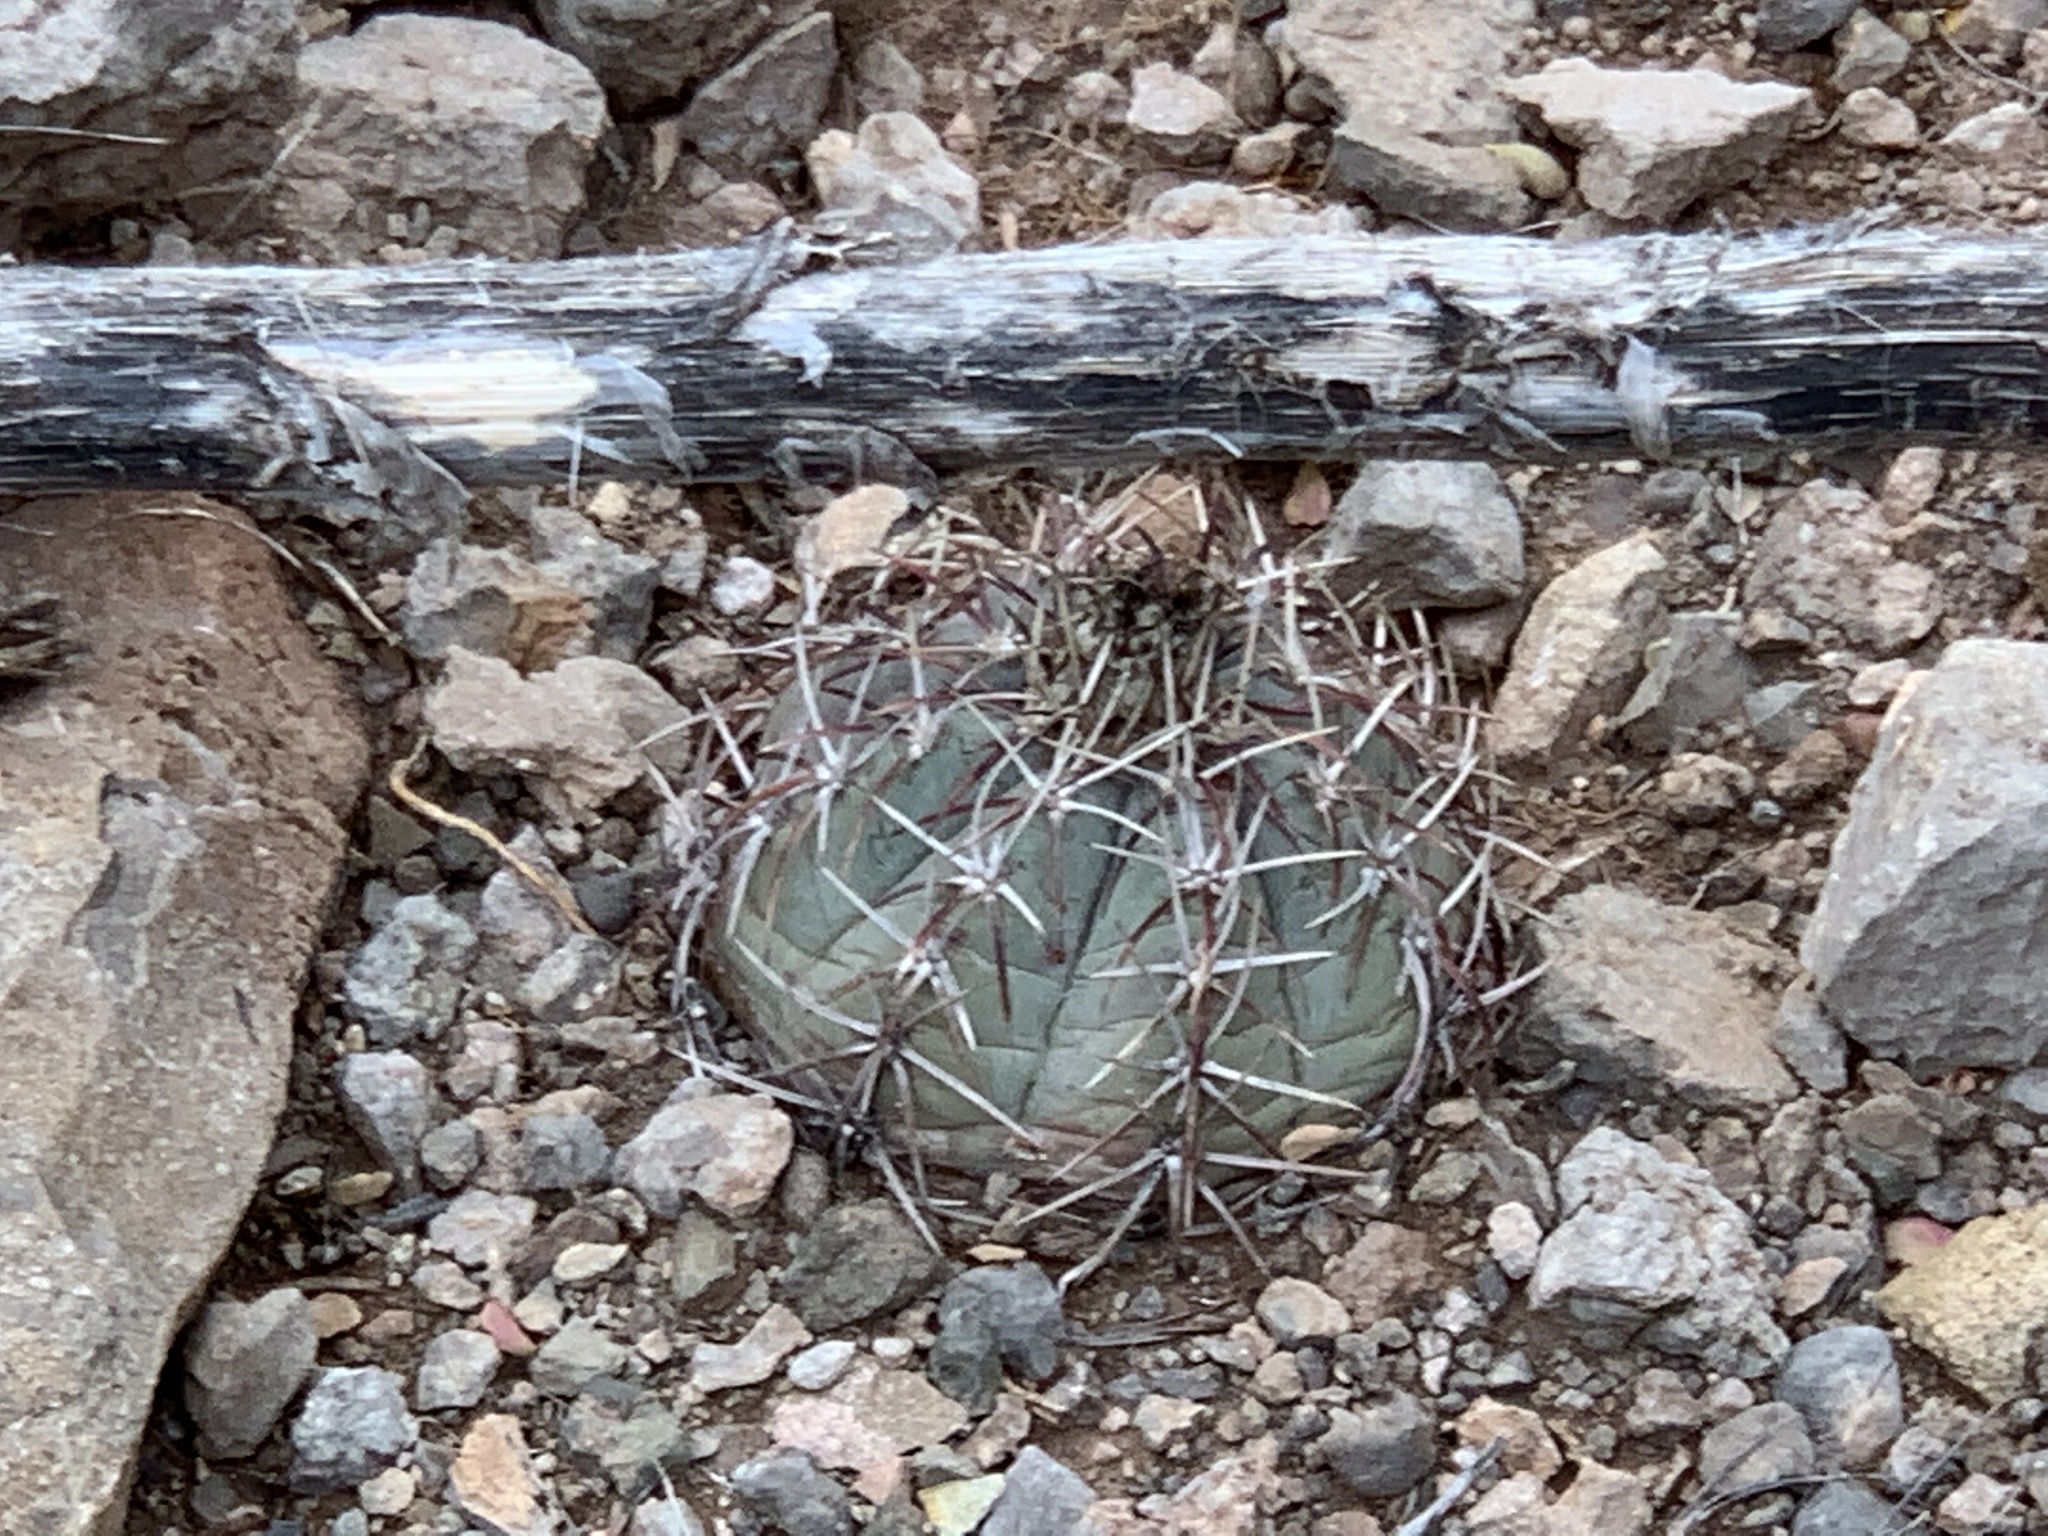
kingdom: Plantae
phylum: Tracheophyta
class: Magnoliopsida
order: Caryophyllales
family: Cactaceae
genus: Echinocactus
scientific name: Echinocactus horizonthalonius
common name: Devilshead
